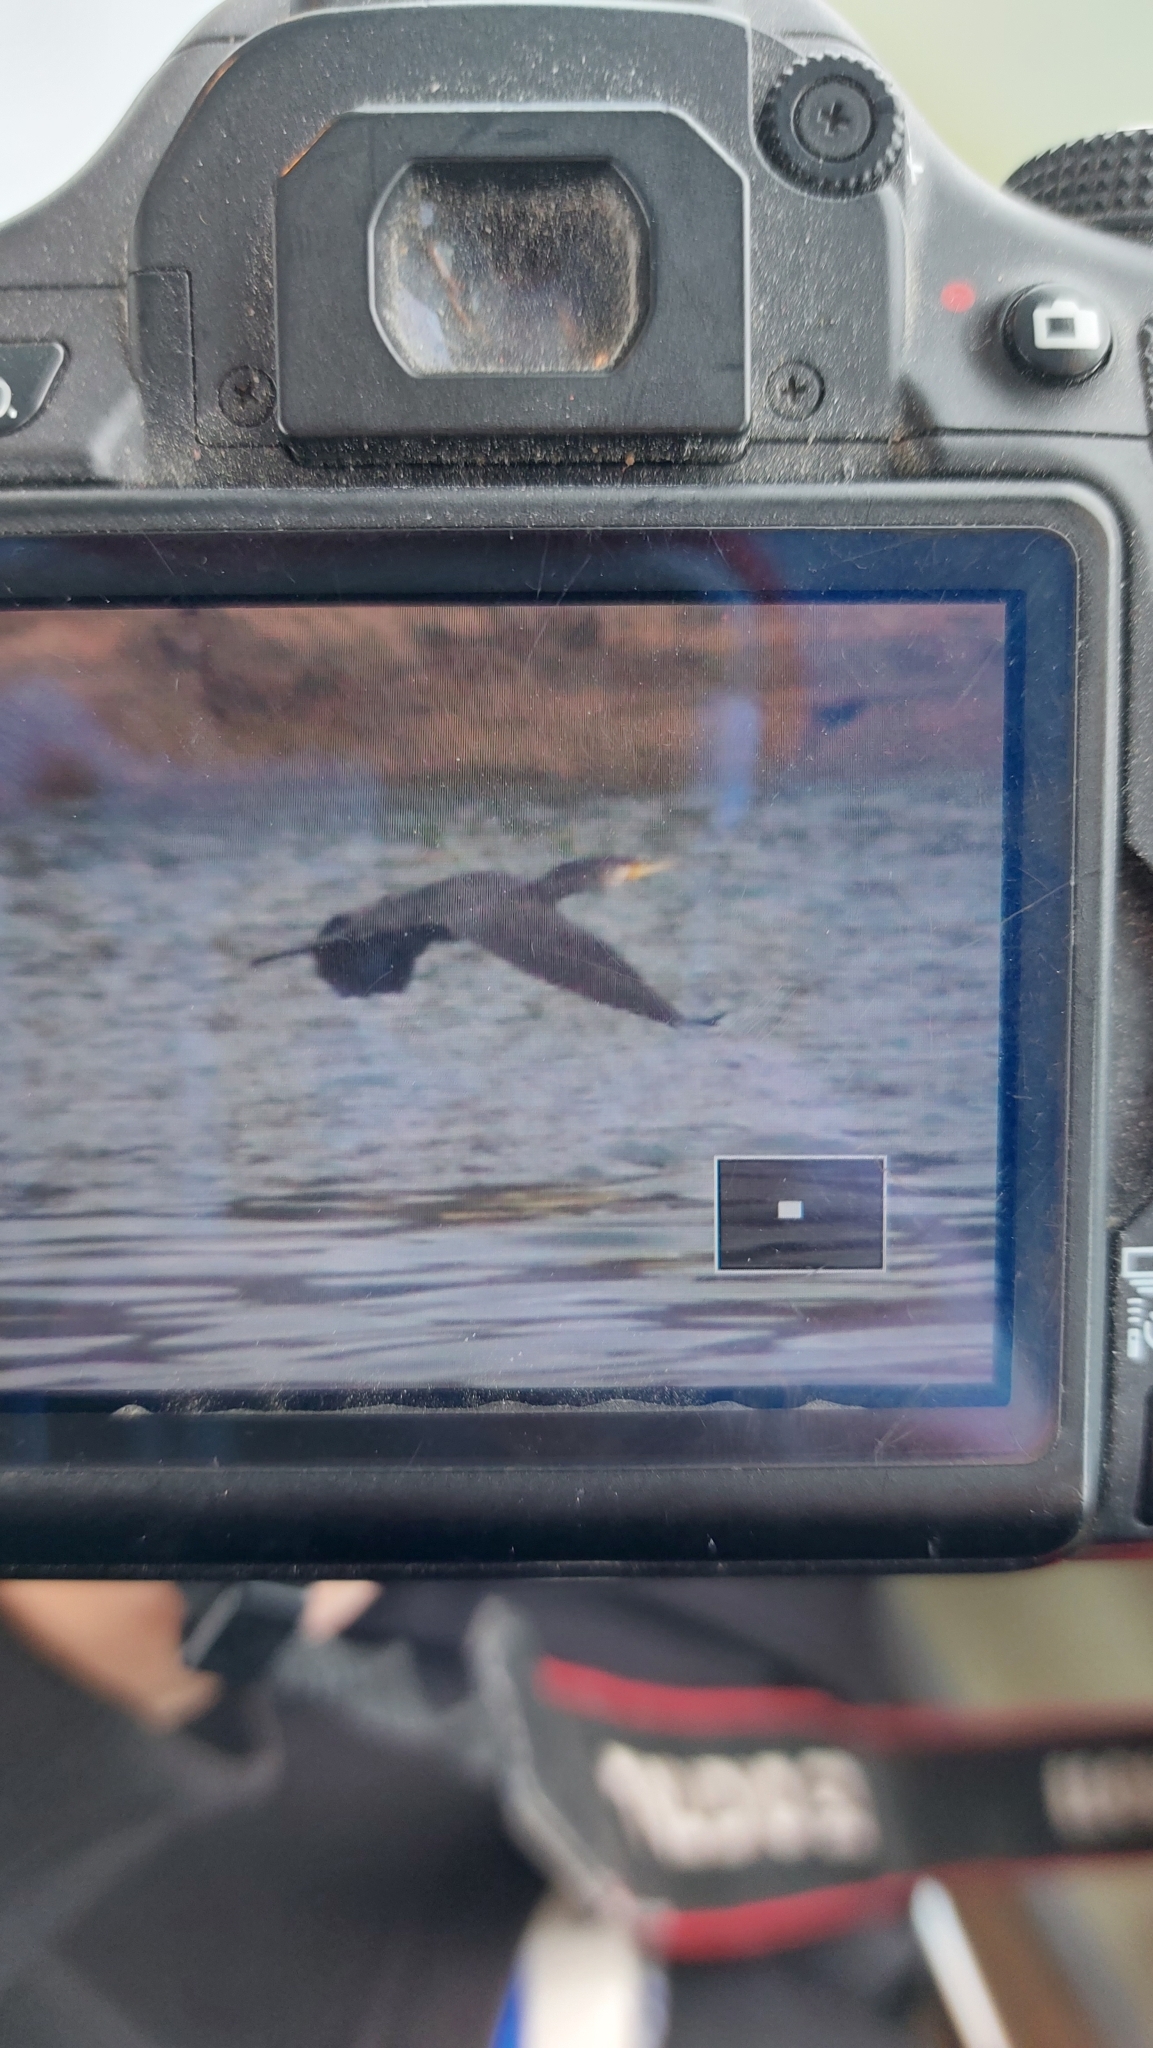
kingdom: Animalia
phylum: Chordata
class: Aves
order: Suliformes
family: Phalacrocoracidae
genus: Phalacrocorax
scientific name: Phalacrocorax carbo
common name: Great cormorant
